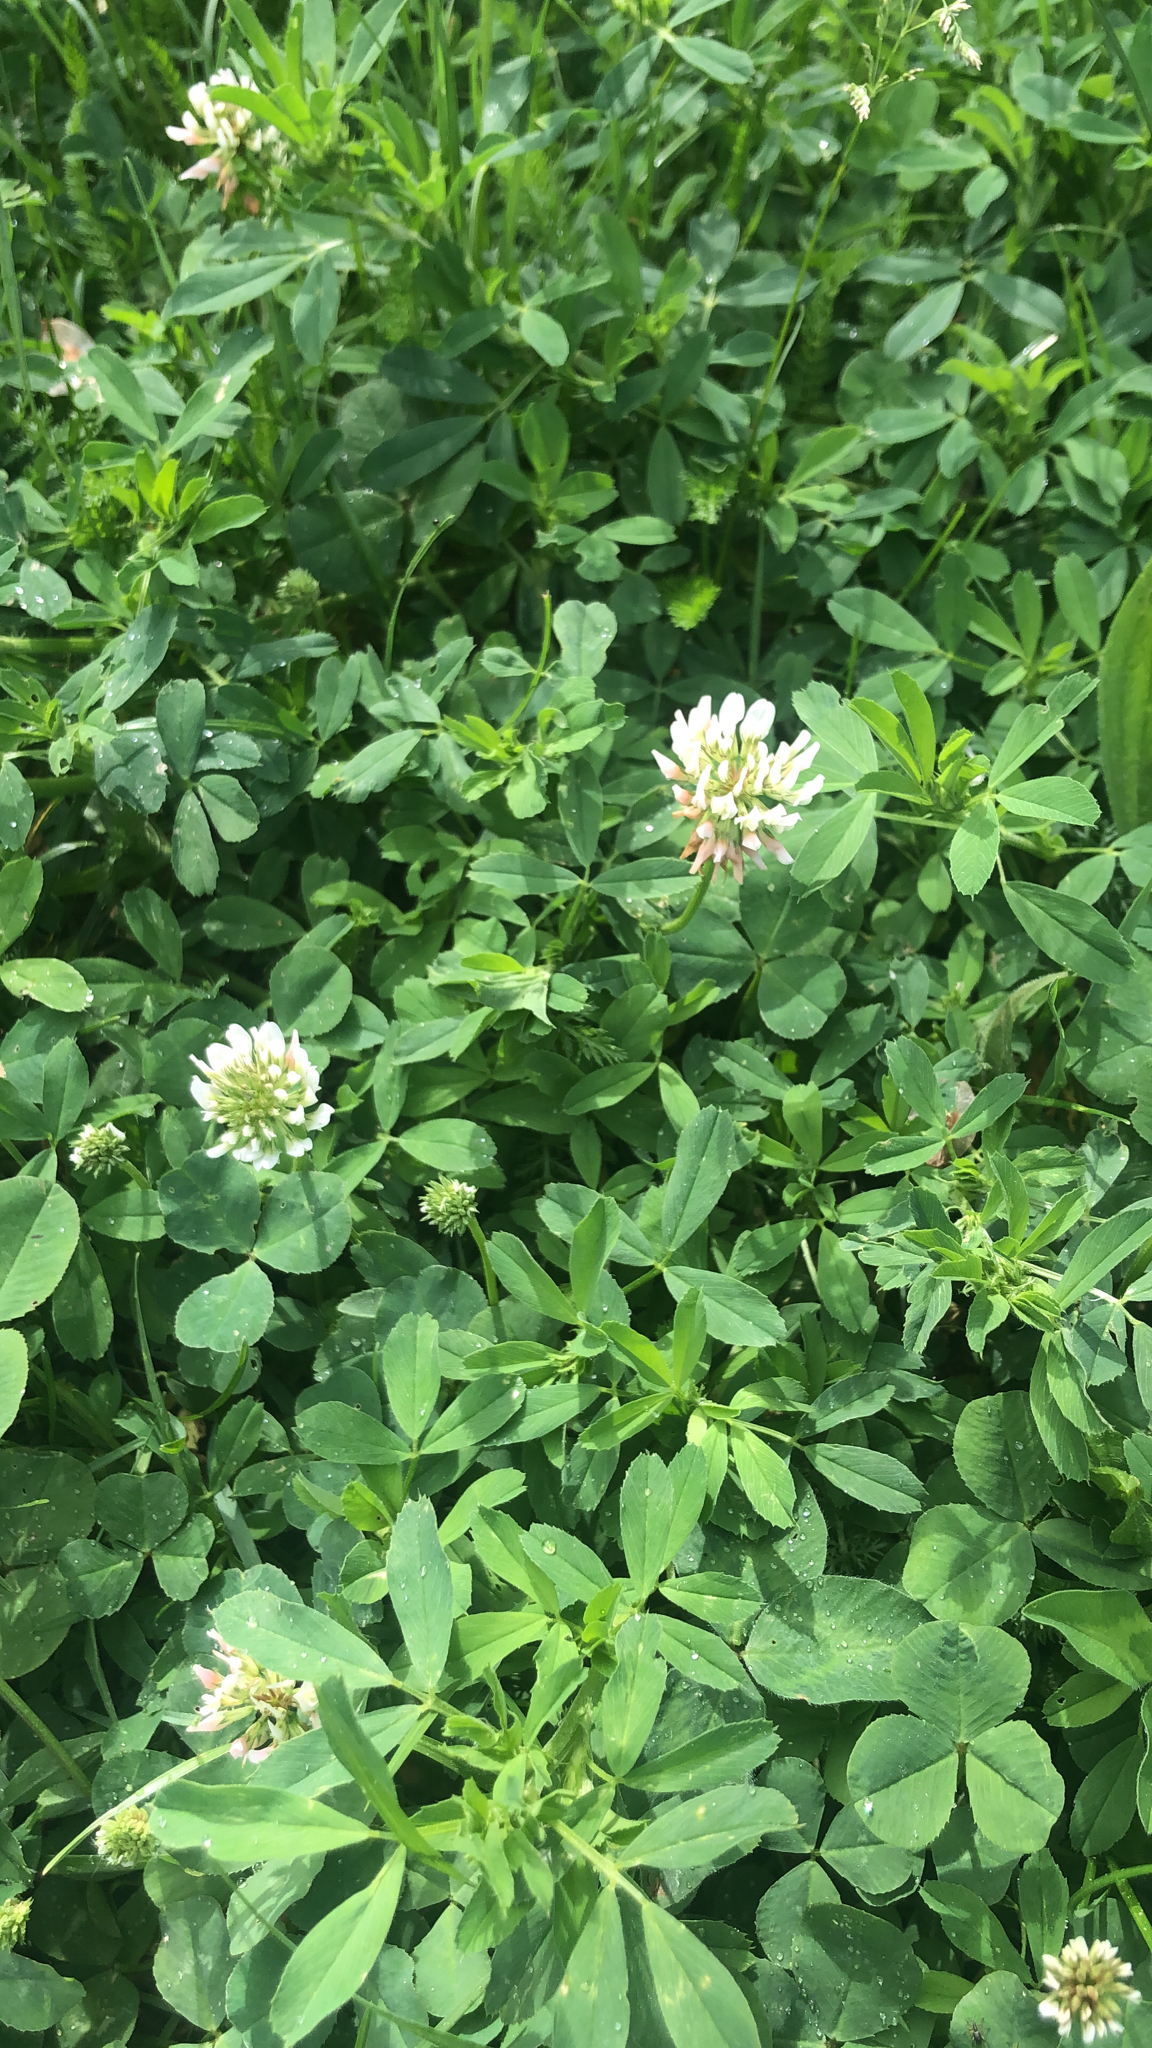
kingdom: Plantae
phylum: Tracheophyta
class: Magnoliopsida
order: Fabales
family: Fabaceae
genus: Trifolium
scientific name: Trifolium repens
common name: White clover
